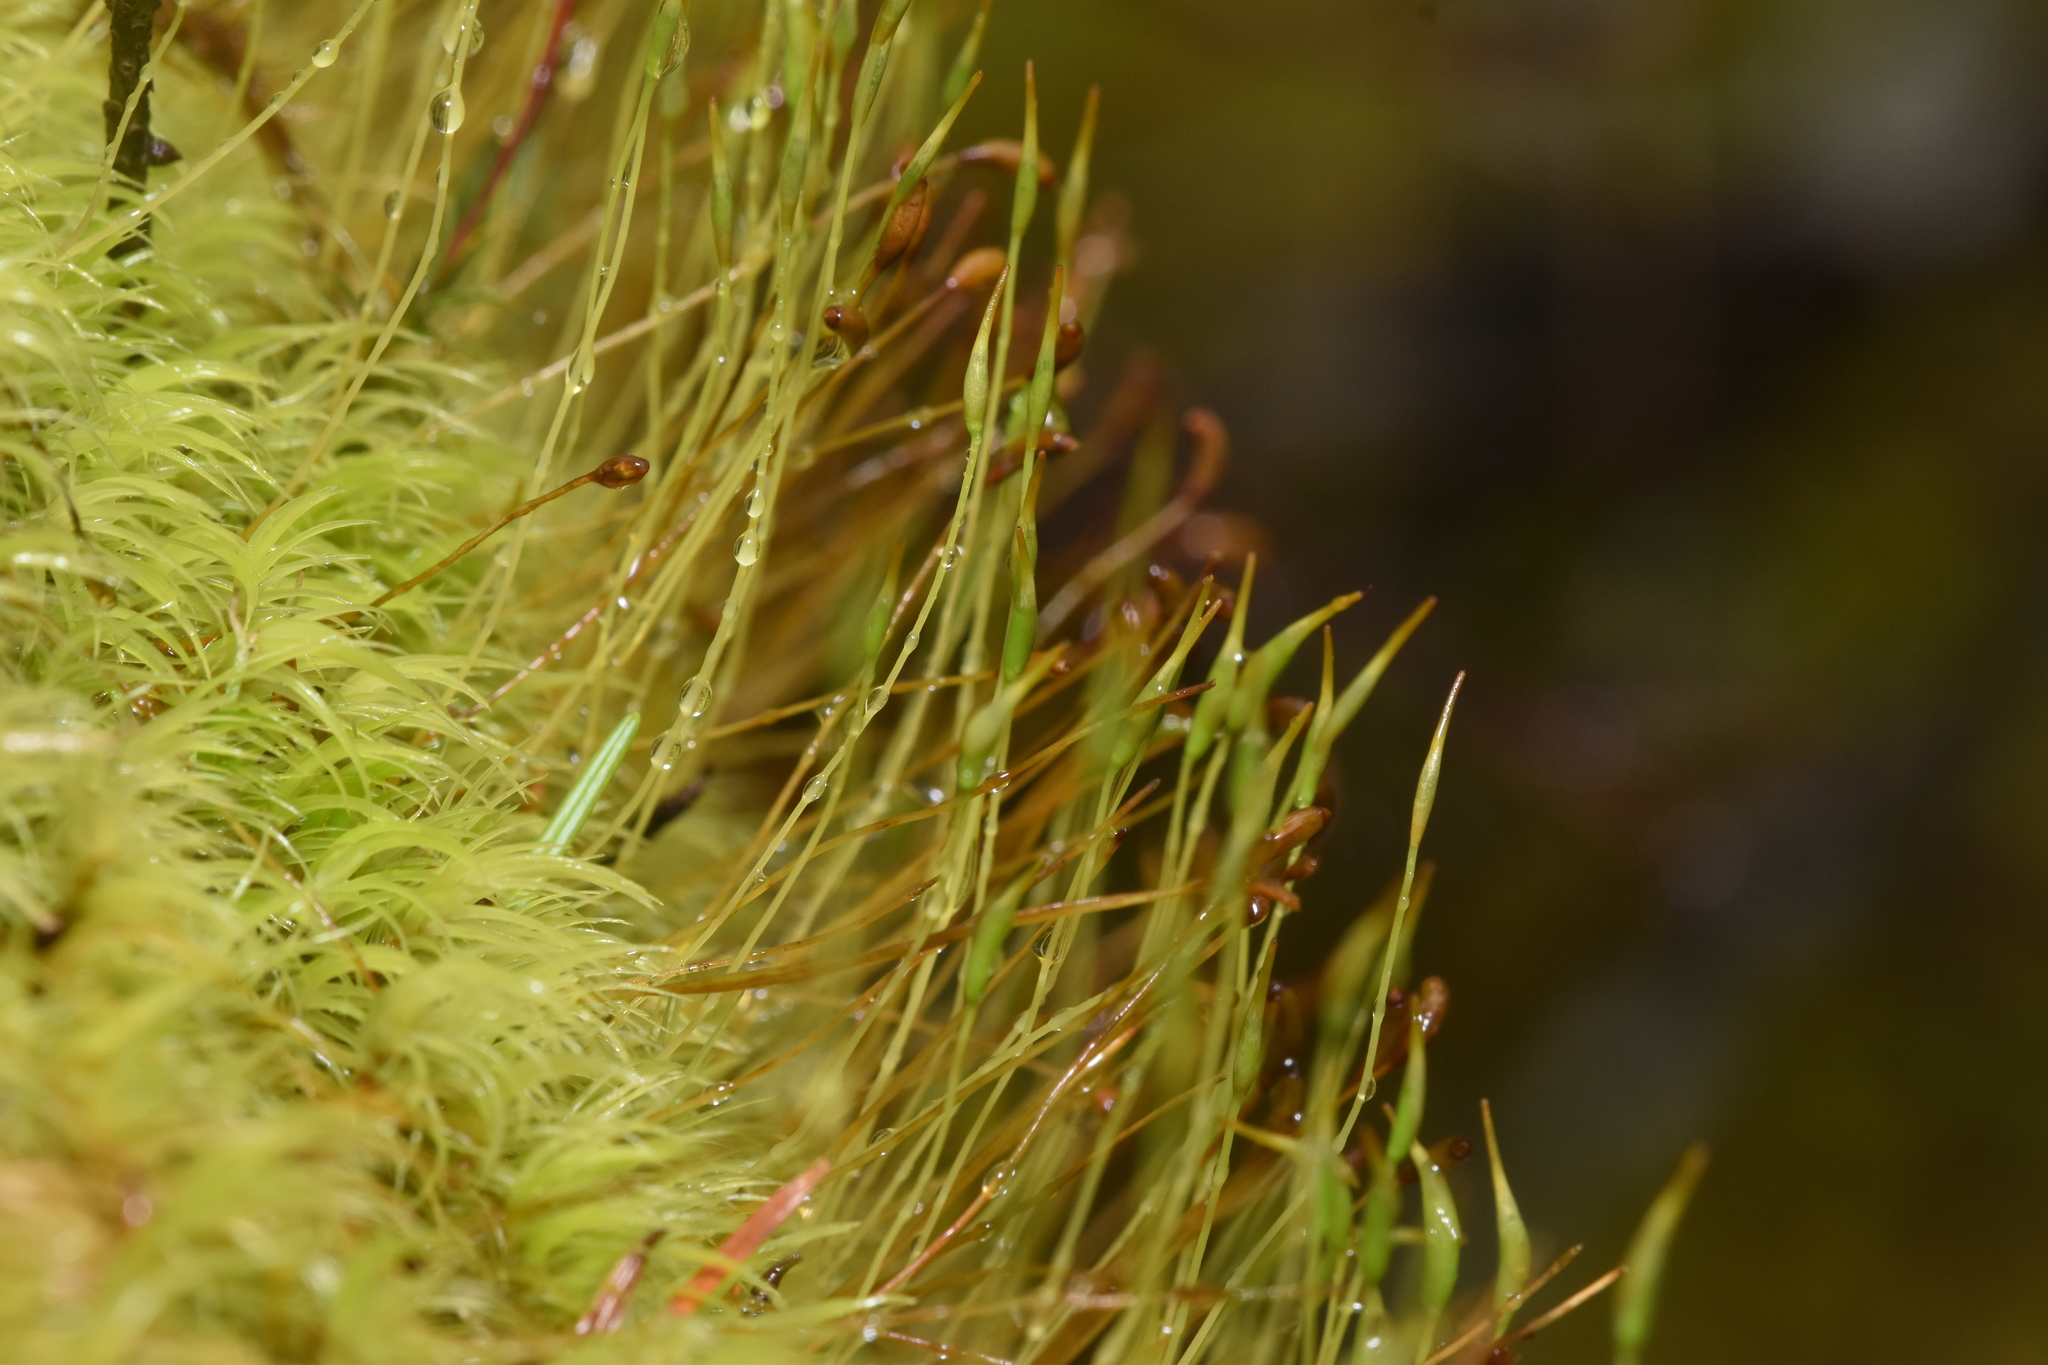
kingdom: Plantae
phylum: Bryophyta
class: Bryopsida
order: Dicranales
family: Dicranaceae
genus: Dicranum
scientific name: Dicranum scoparium
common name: Broom fork-moss
